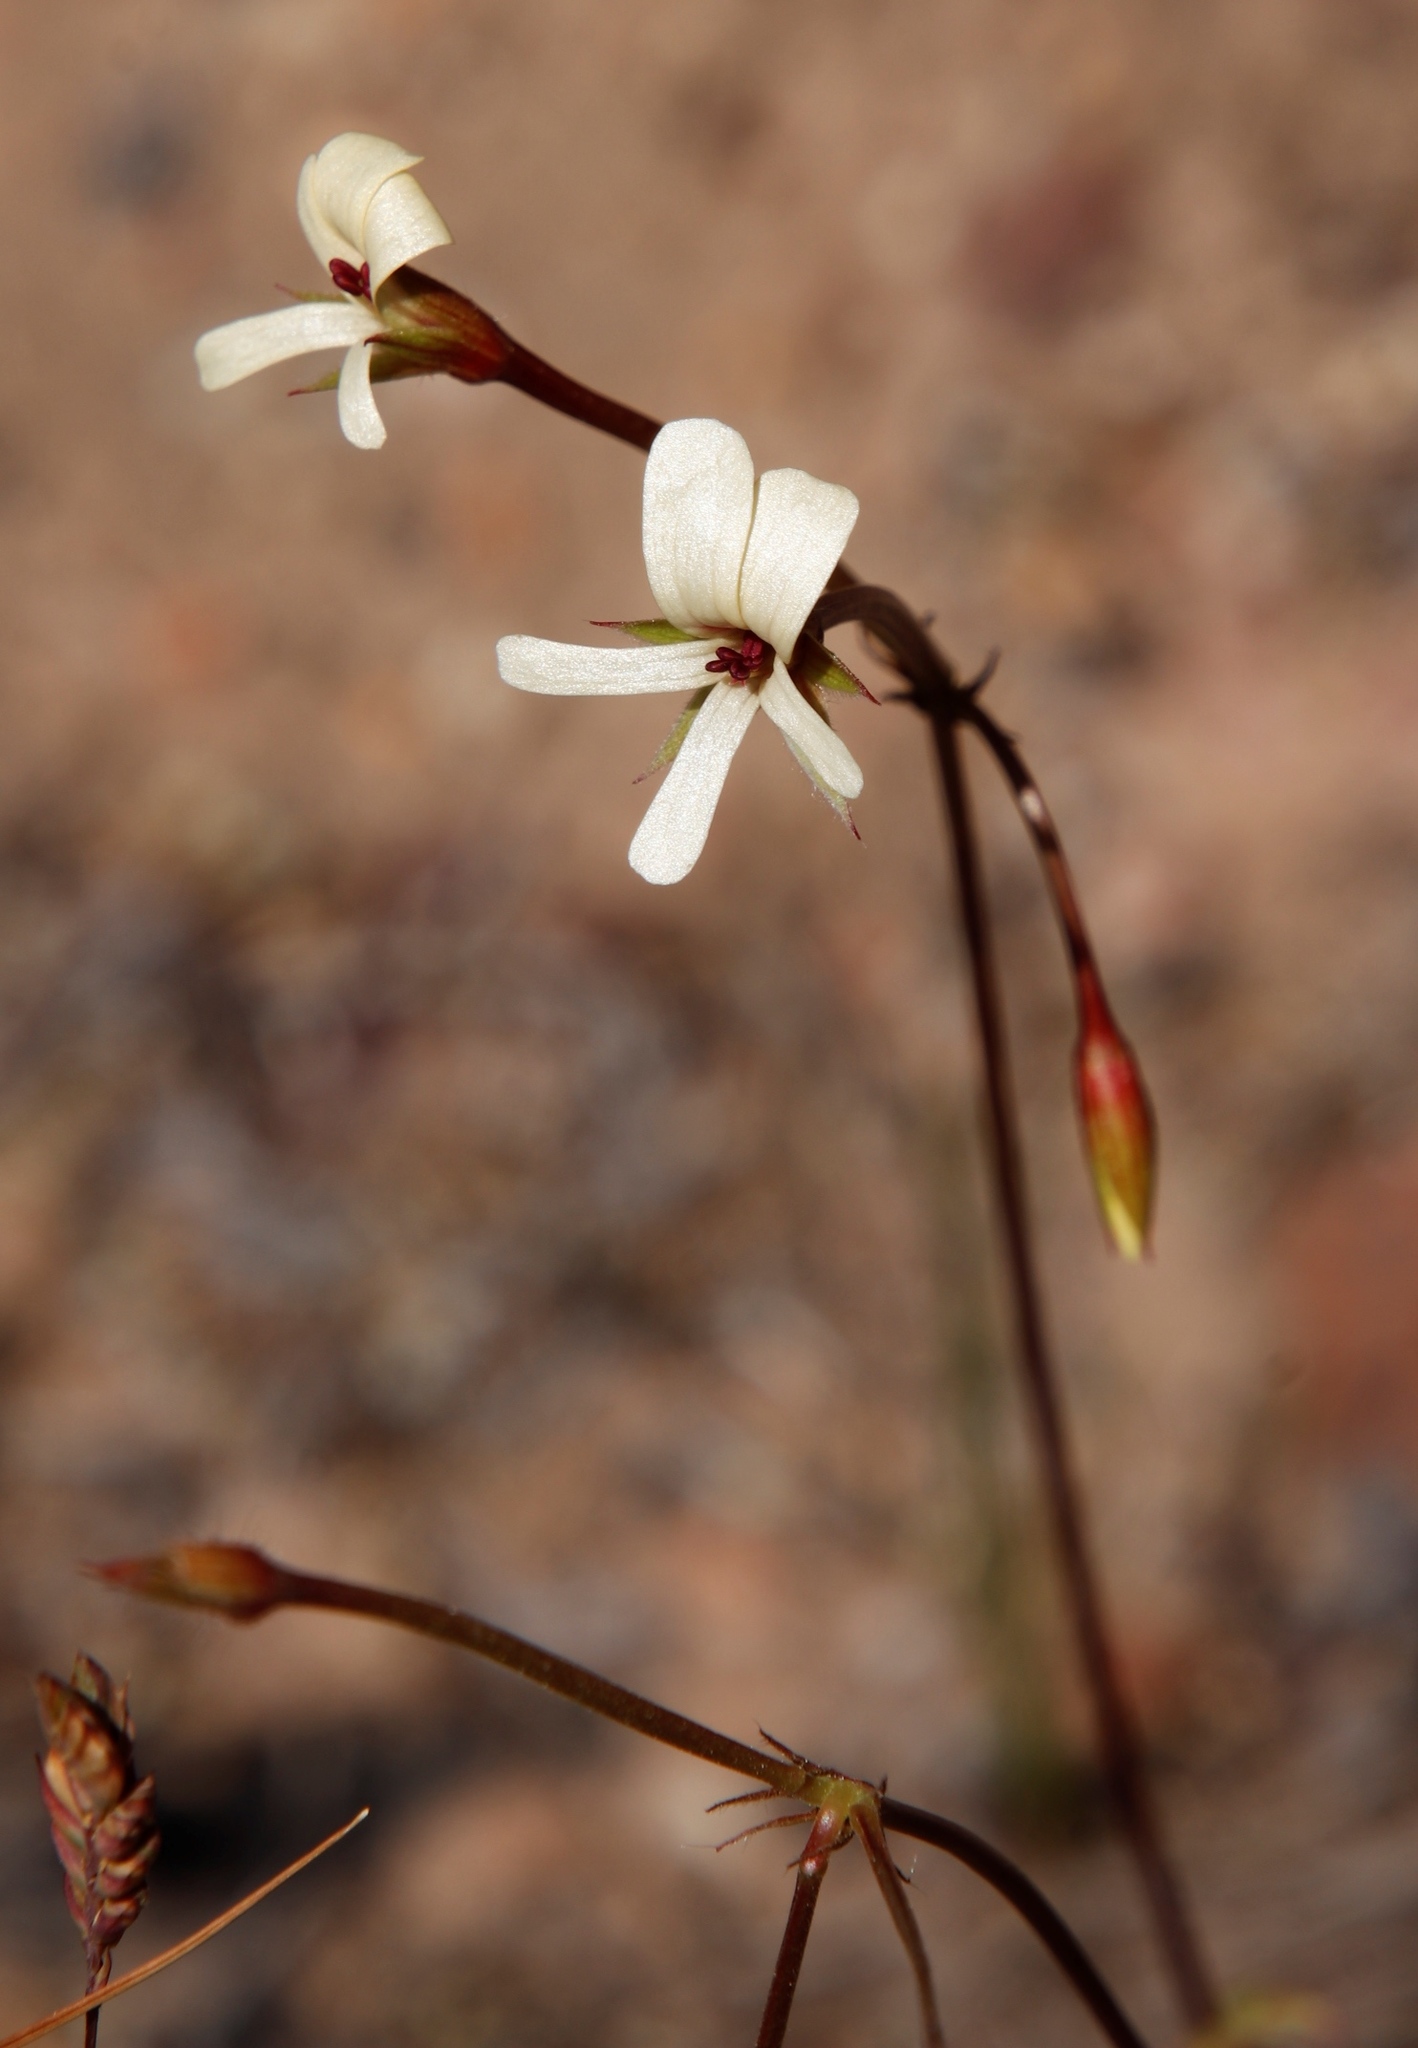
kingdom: Plantae
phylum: Tracheophyta
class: Magnoliopsida
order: Geraniales
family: Geraniaceae
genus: Pelargonium
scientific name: Pelargonium elongatum
